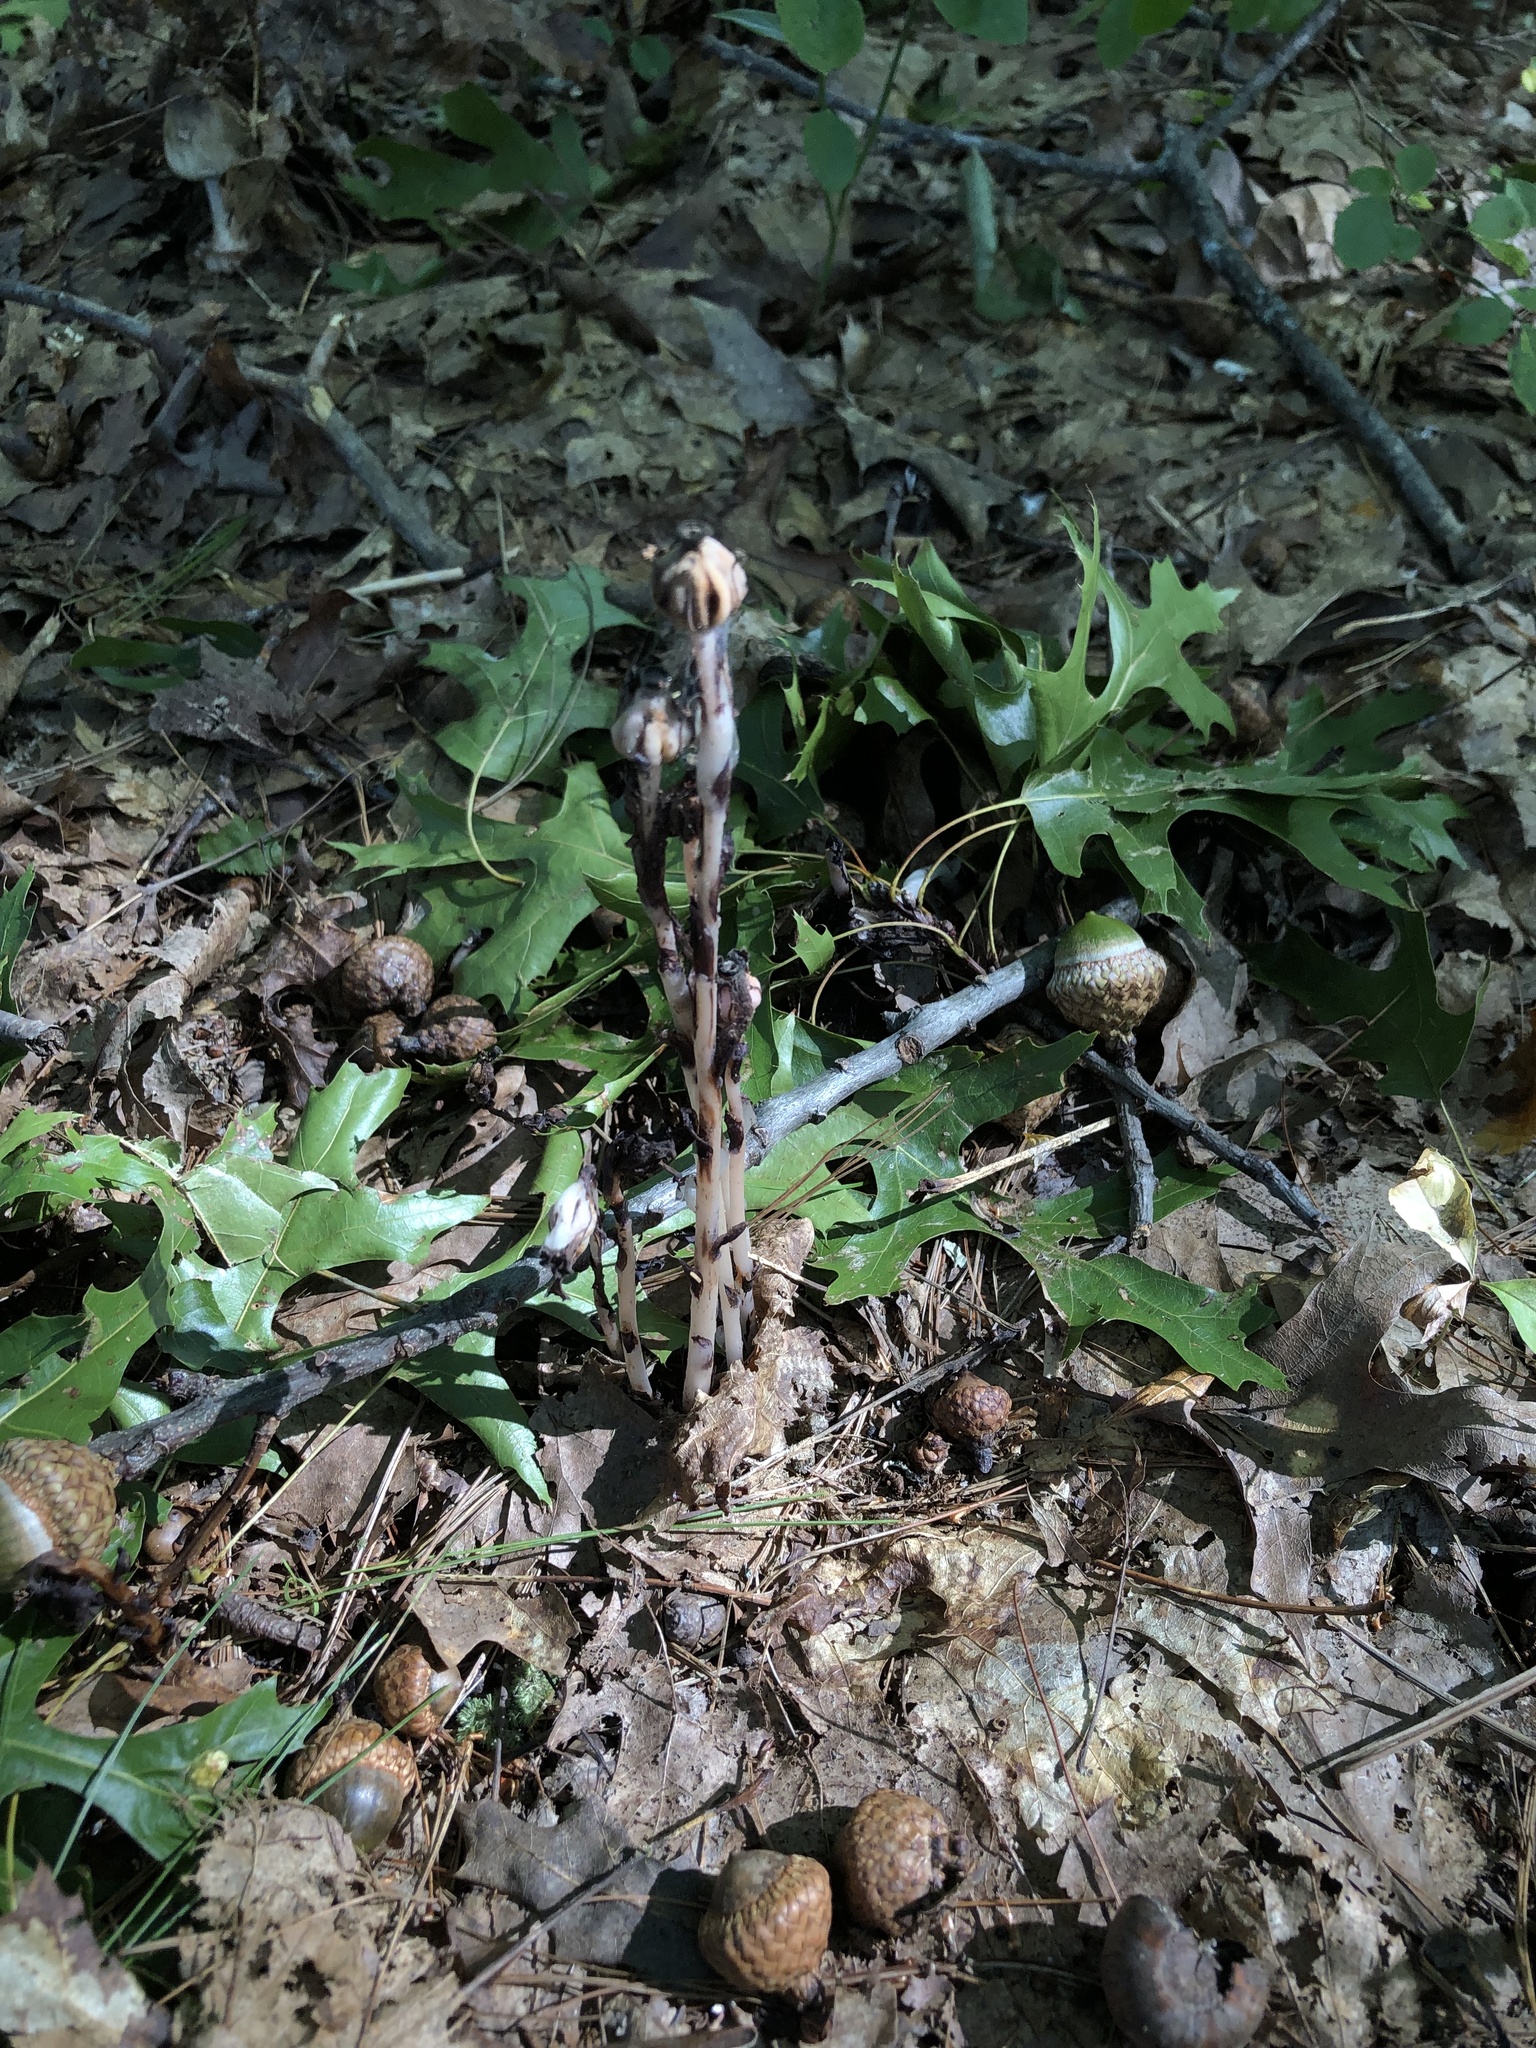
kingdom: Plantae
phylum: Tracheophyta
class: Magnoliopsida
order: Ericales
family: Ericaceae
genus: Monotropa
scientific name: Monotropa uniflora
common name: Convulsion root
